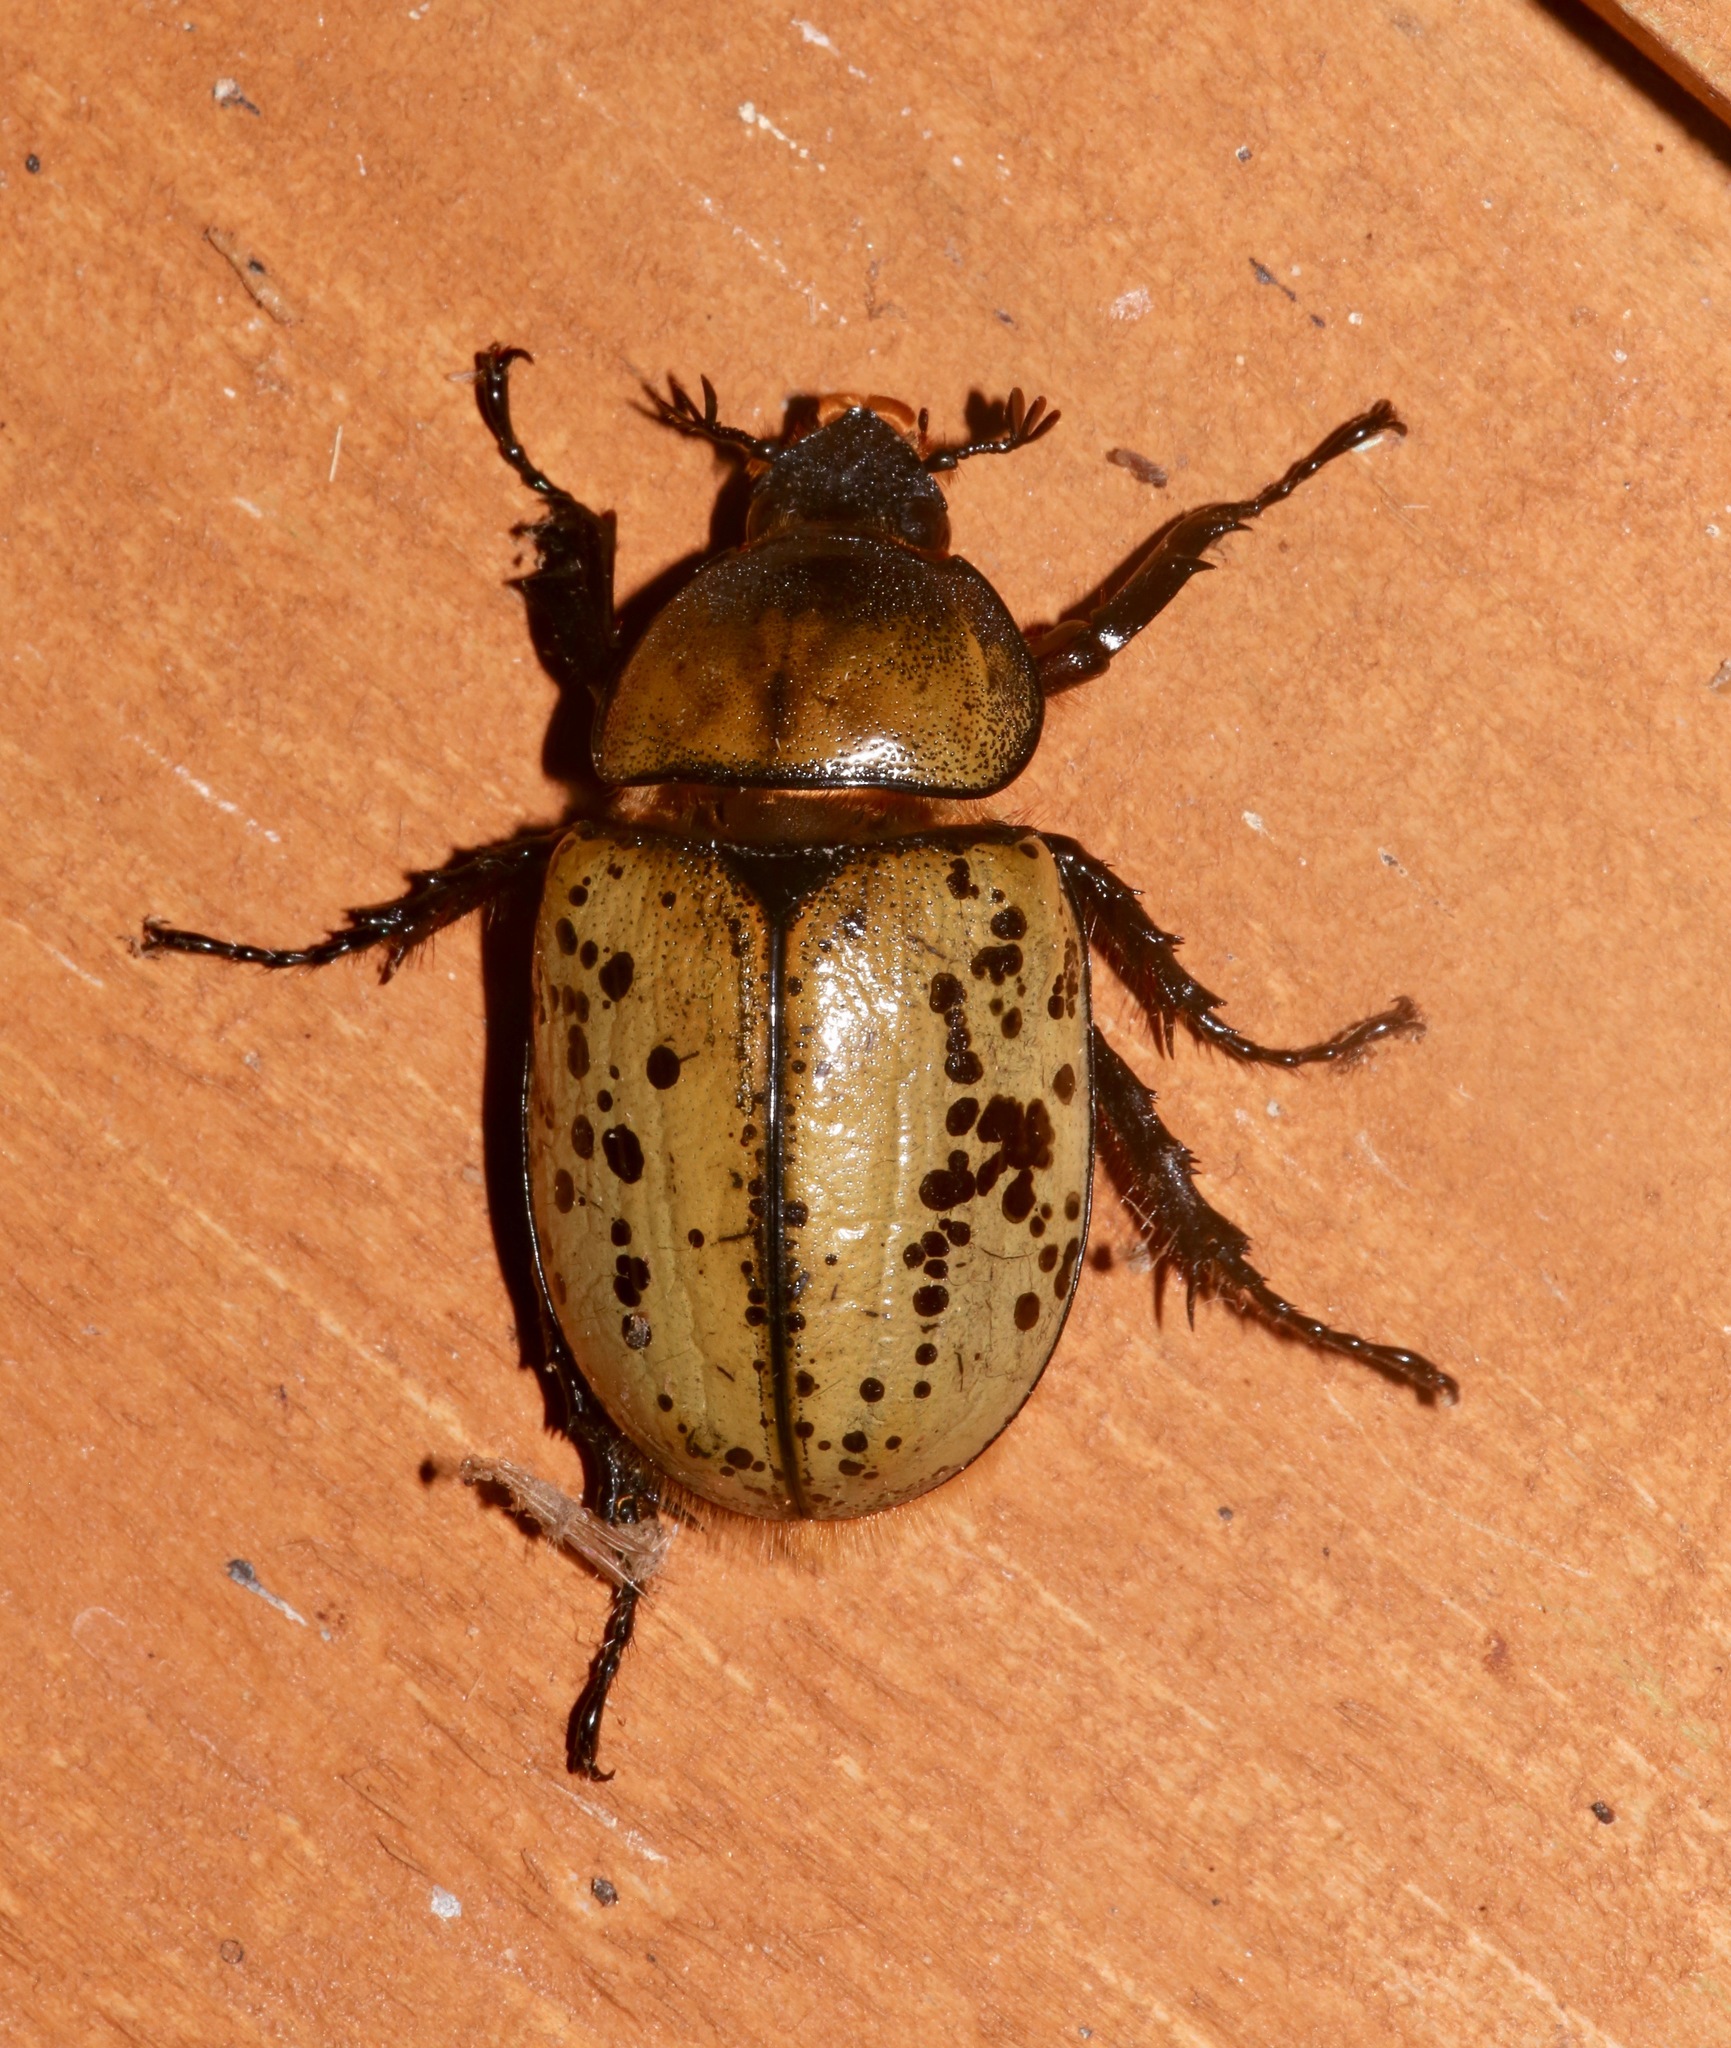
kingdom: Animalia
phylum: Arthropoda
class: Insecta
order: Coleoptera
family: Scarabaeidae
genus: Dynastes
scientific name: Dynastes tityus
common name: Eastern hercules beetle
